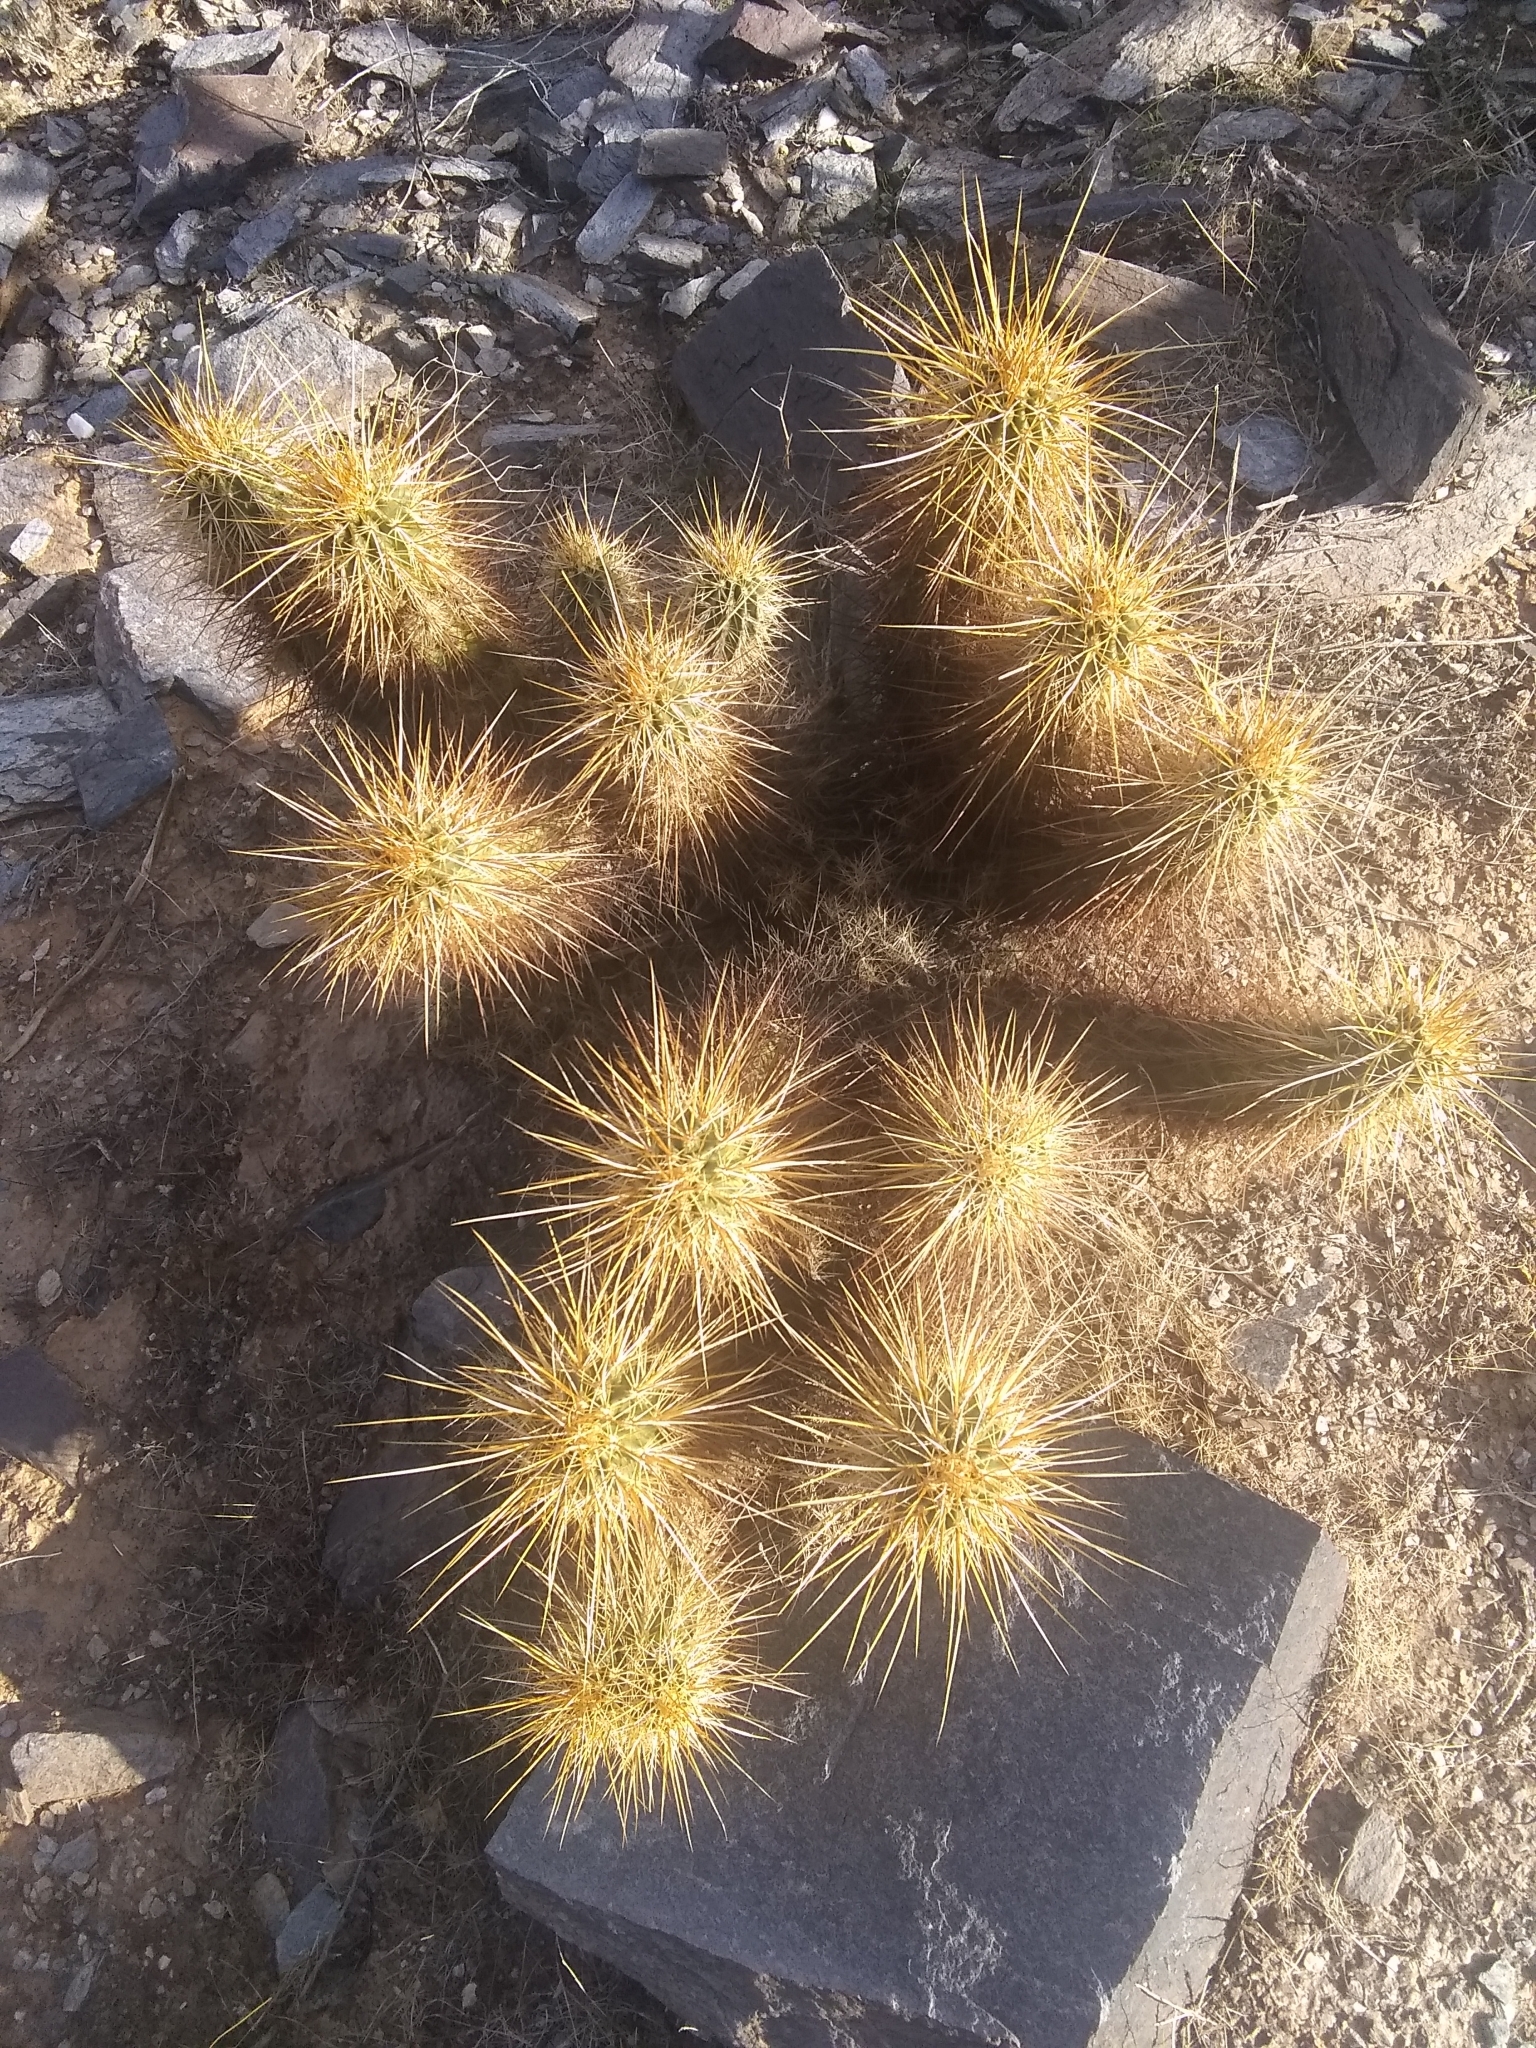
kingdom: Plantae
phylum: Tracheophyta
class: Magnoliopsida
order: Caryophyllales
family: Cactaceae
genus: Echinocereus
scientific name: Echinocereus engelmannii
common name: Engelmann's hedgehog cactus
